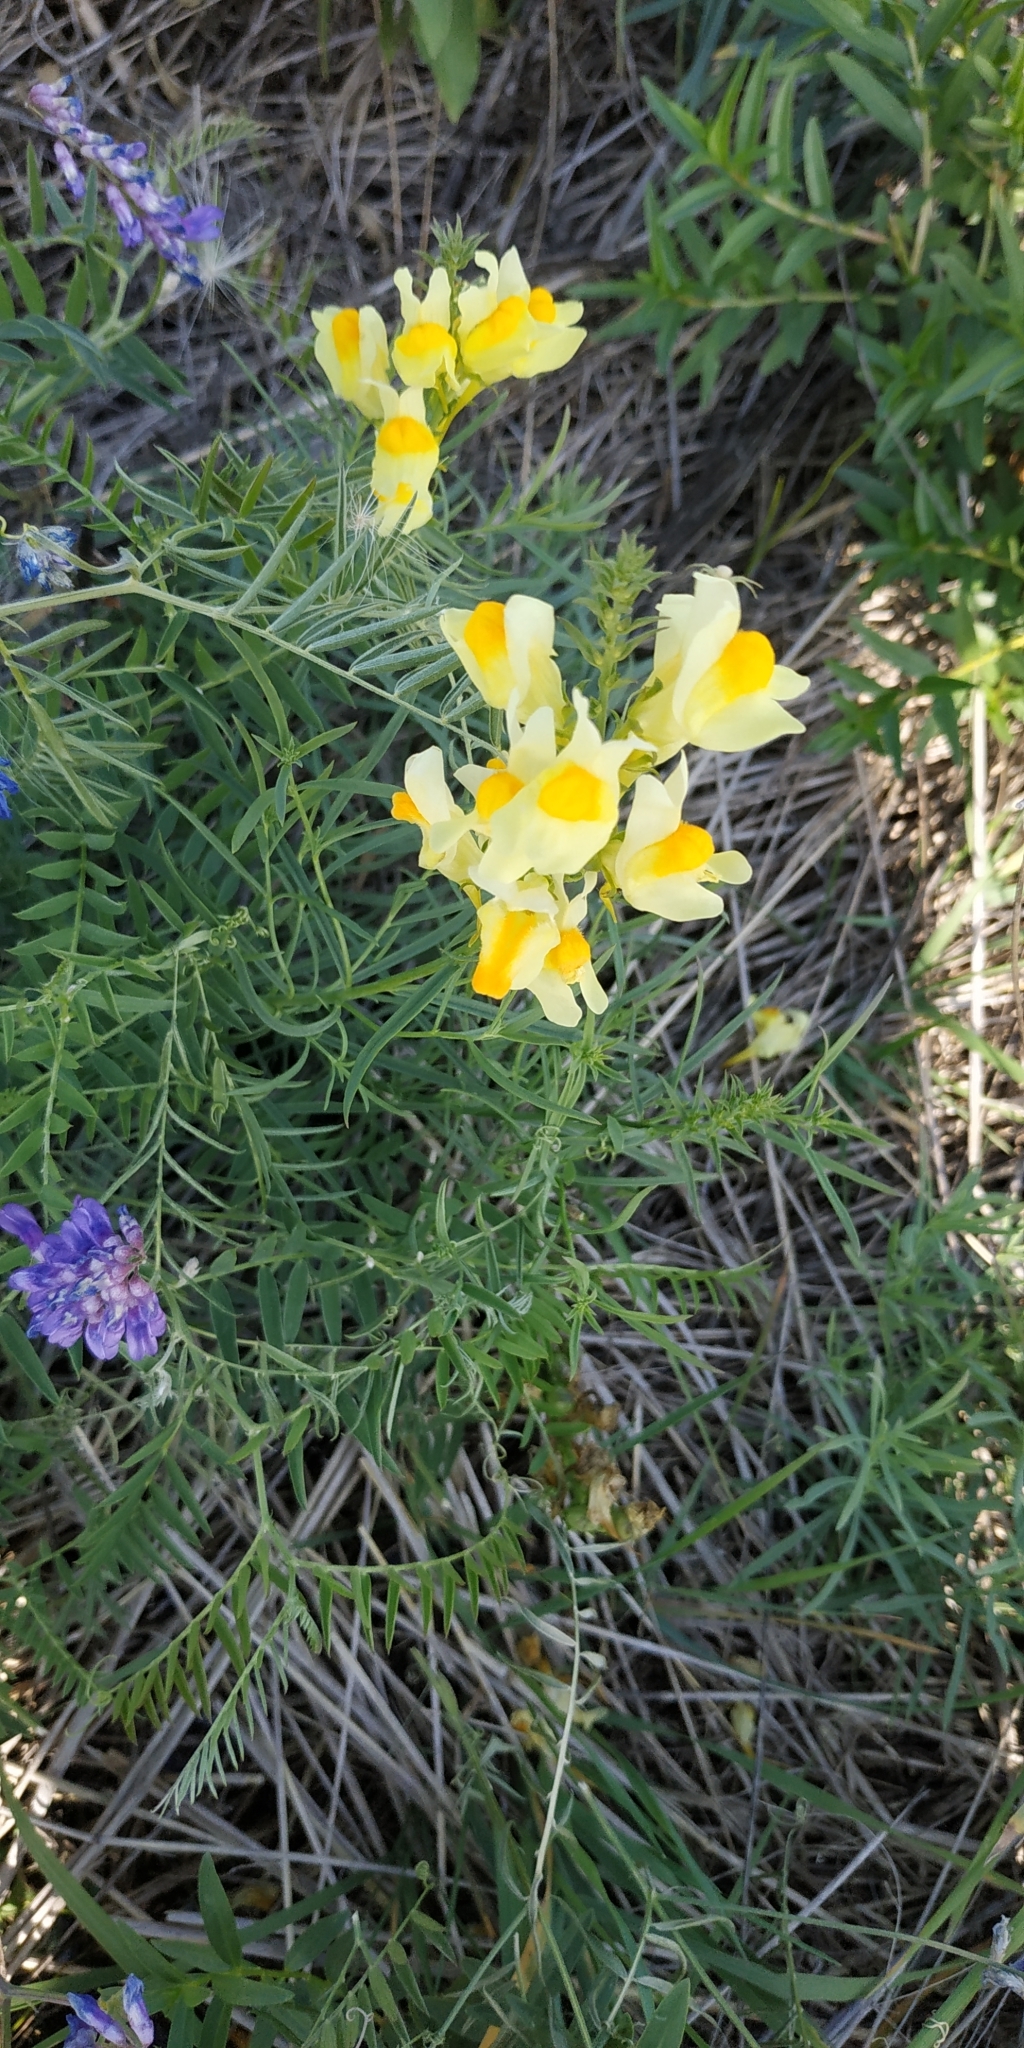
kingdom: Plantae
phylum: Tracheophyta
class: Magnoliopsida
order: Lamiales
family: Plantaginaceae
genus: Linaria
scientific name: Linaria vulgaris
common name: Butter and eggs
